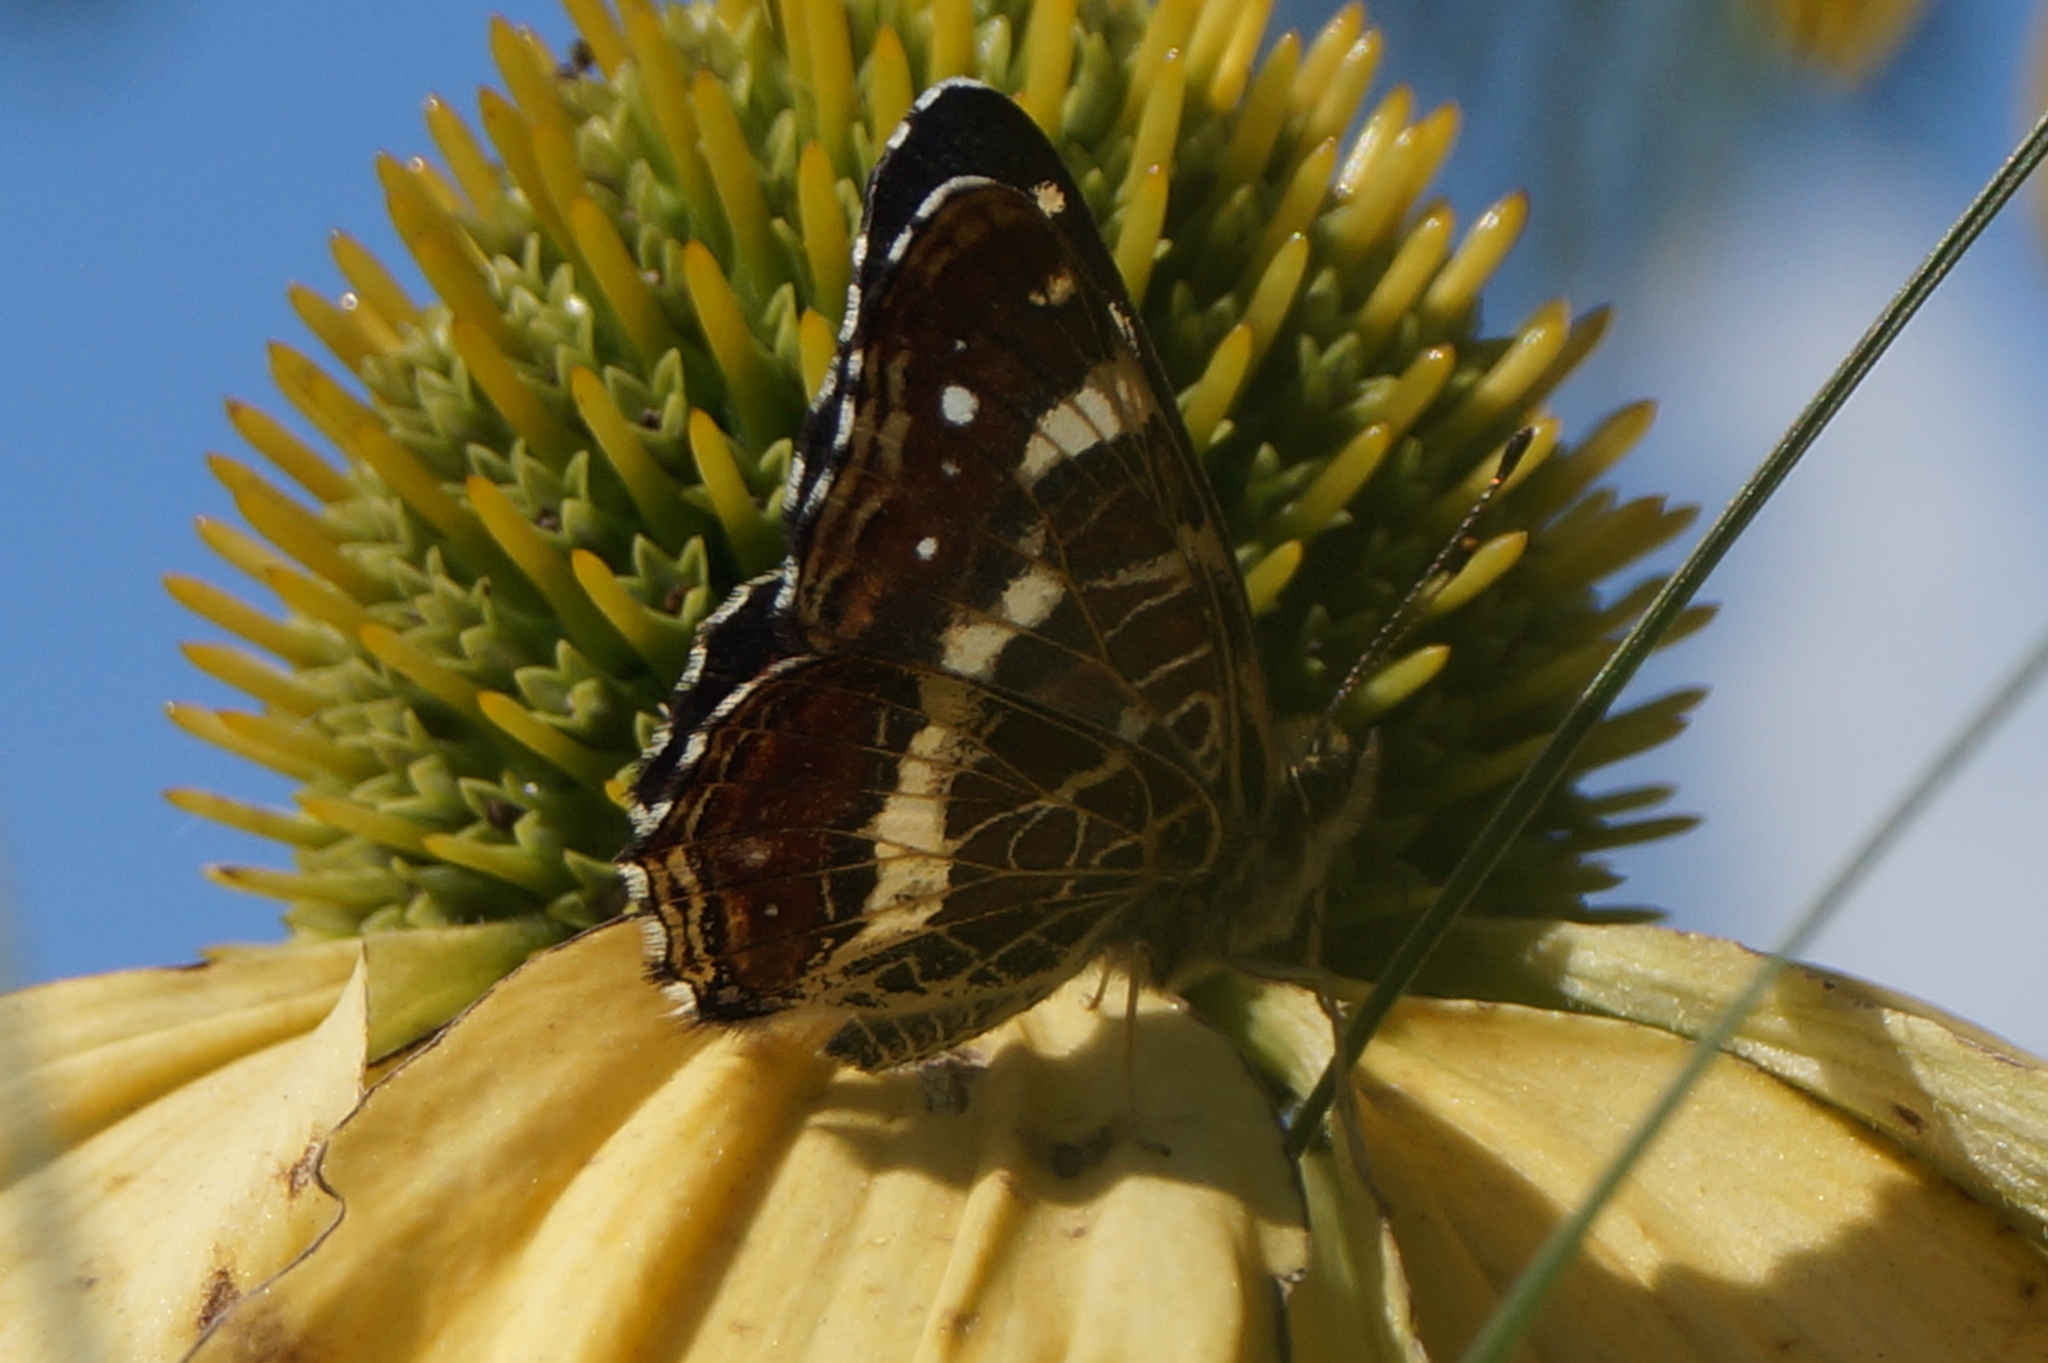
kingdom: Animalia
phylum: Arthropoda
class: Insecta
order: Lepidoptera
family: Nymphalidae
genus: Araschnia
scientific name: Araschnia levana
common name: Map butterfly
